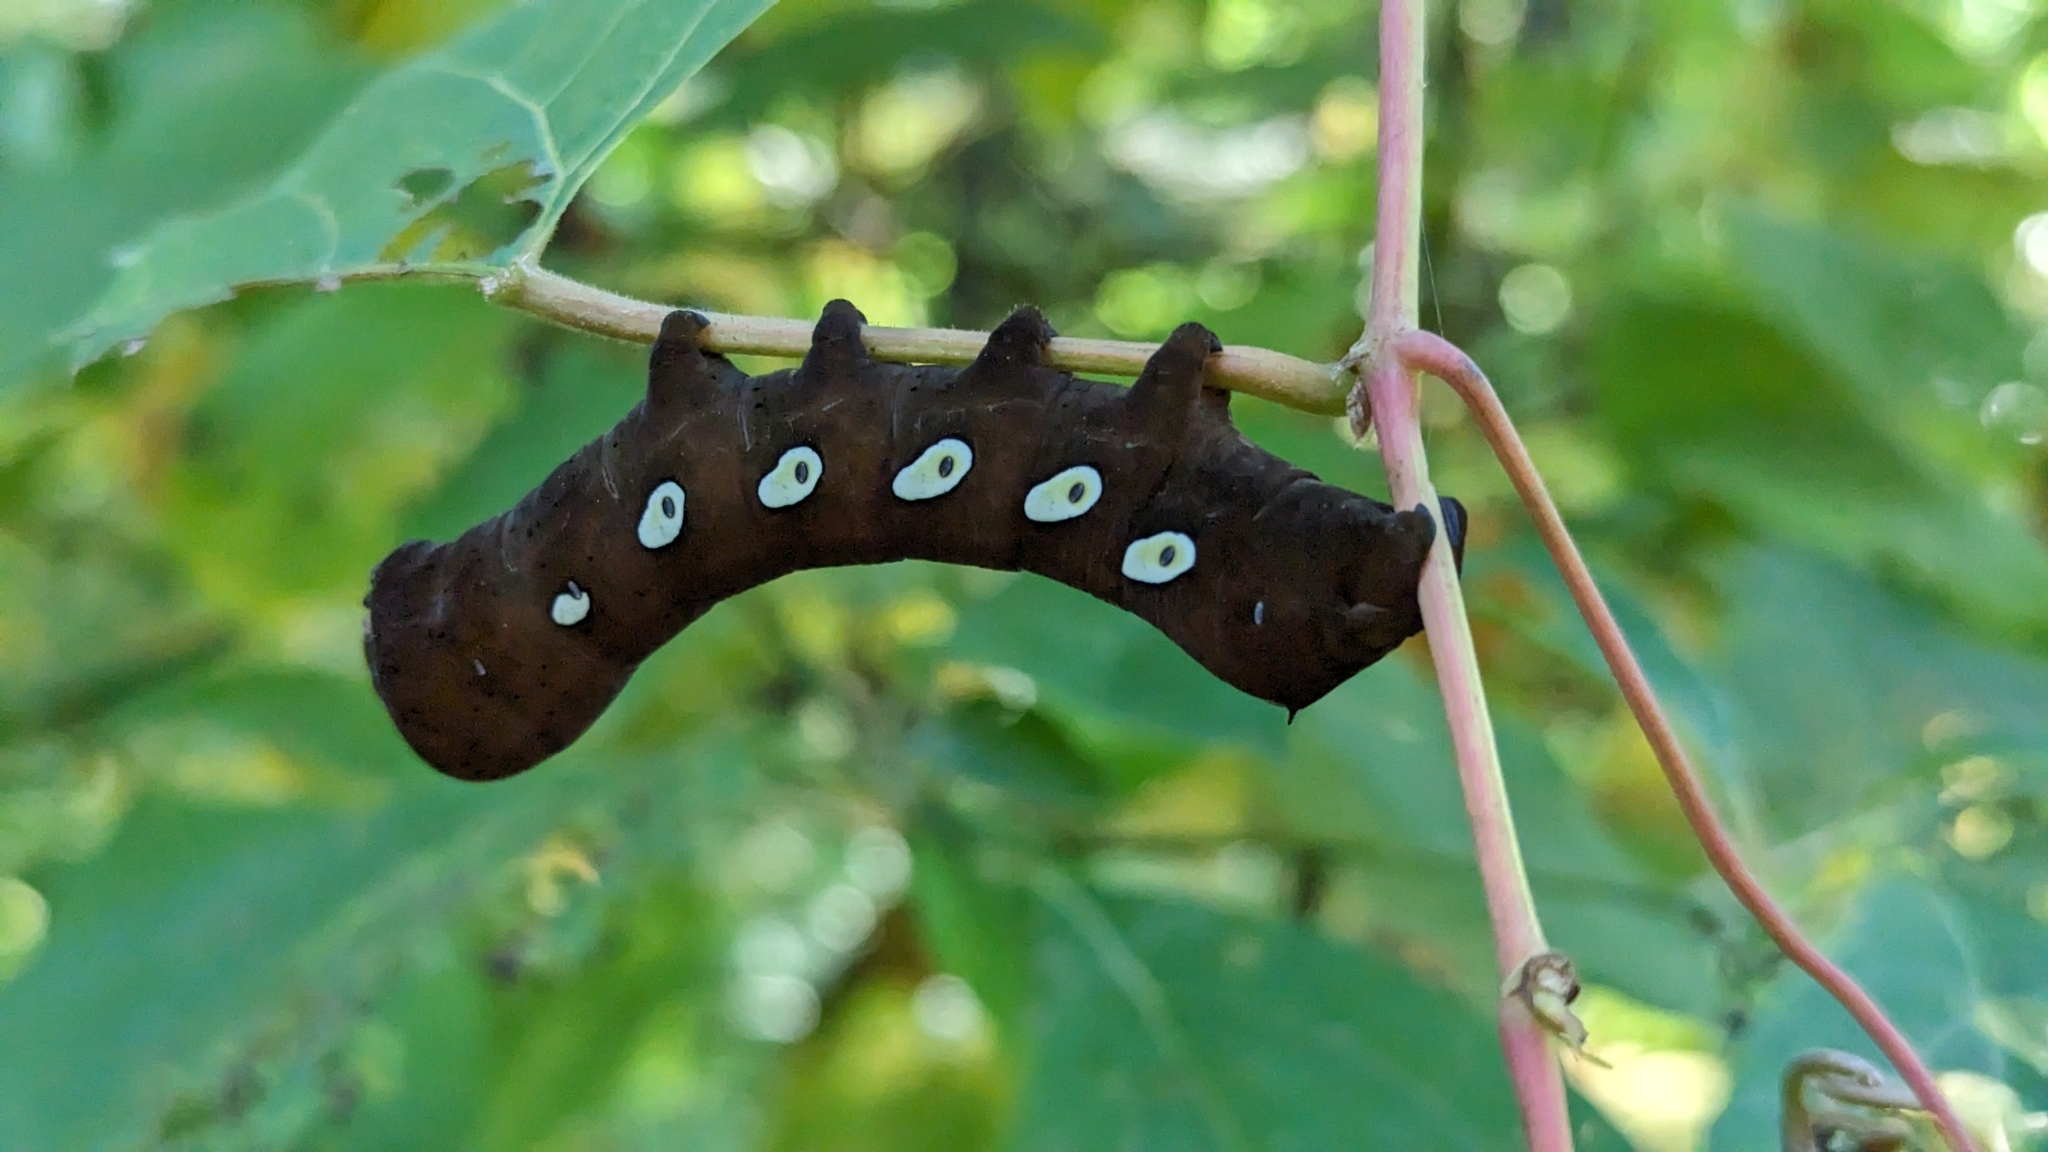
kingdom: Animalia
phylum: Arthropoda
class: Insecta
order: Lepidoptera
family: Sphingidae
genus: Eumorpha
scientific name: Eumorpha pandorus
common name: Pandora sphinx
